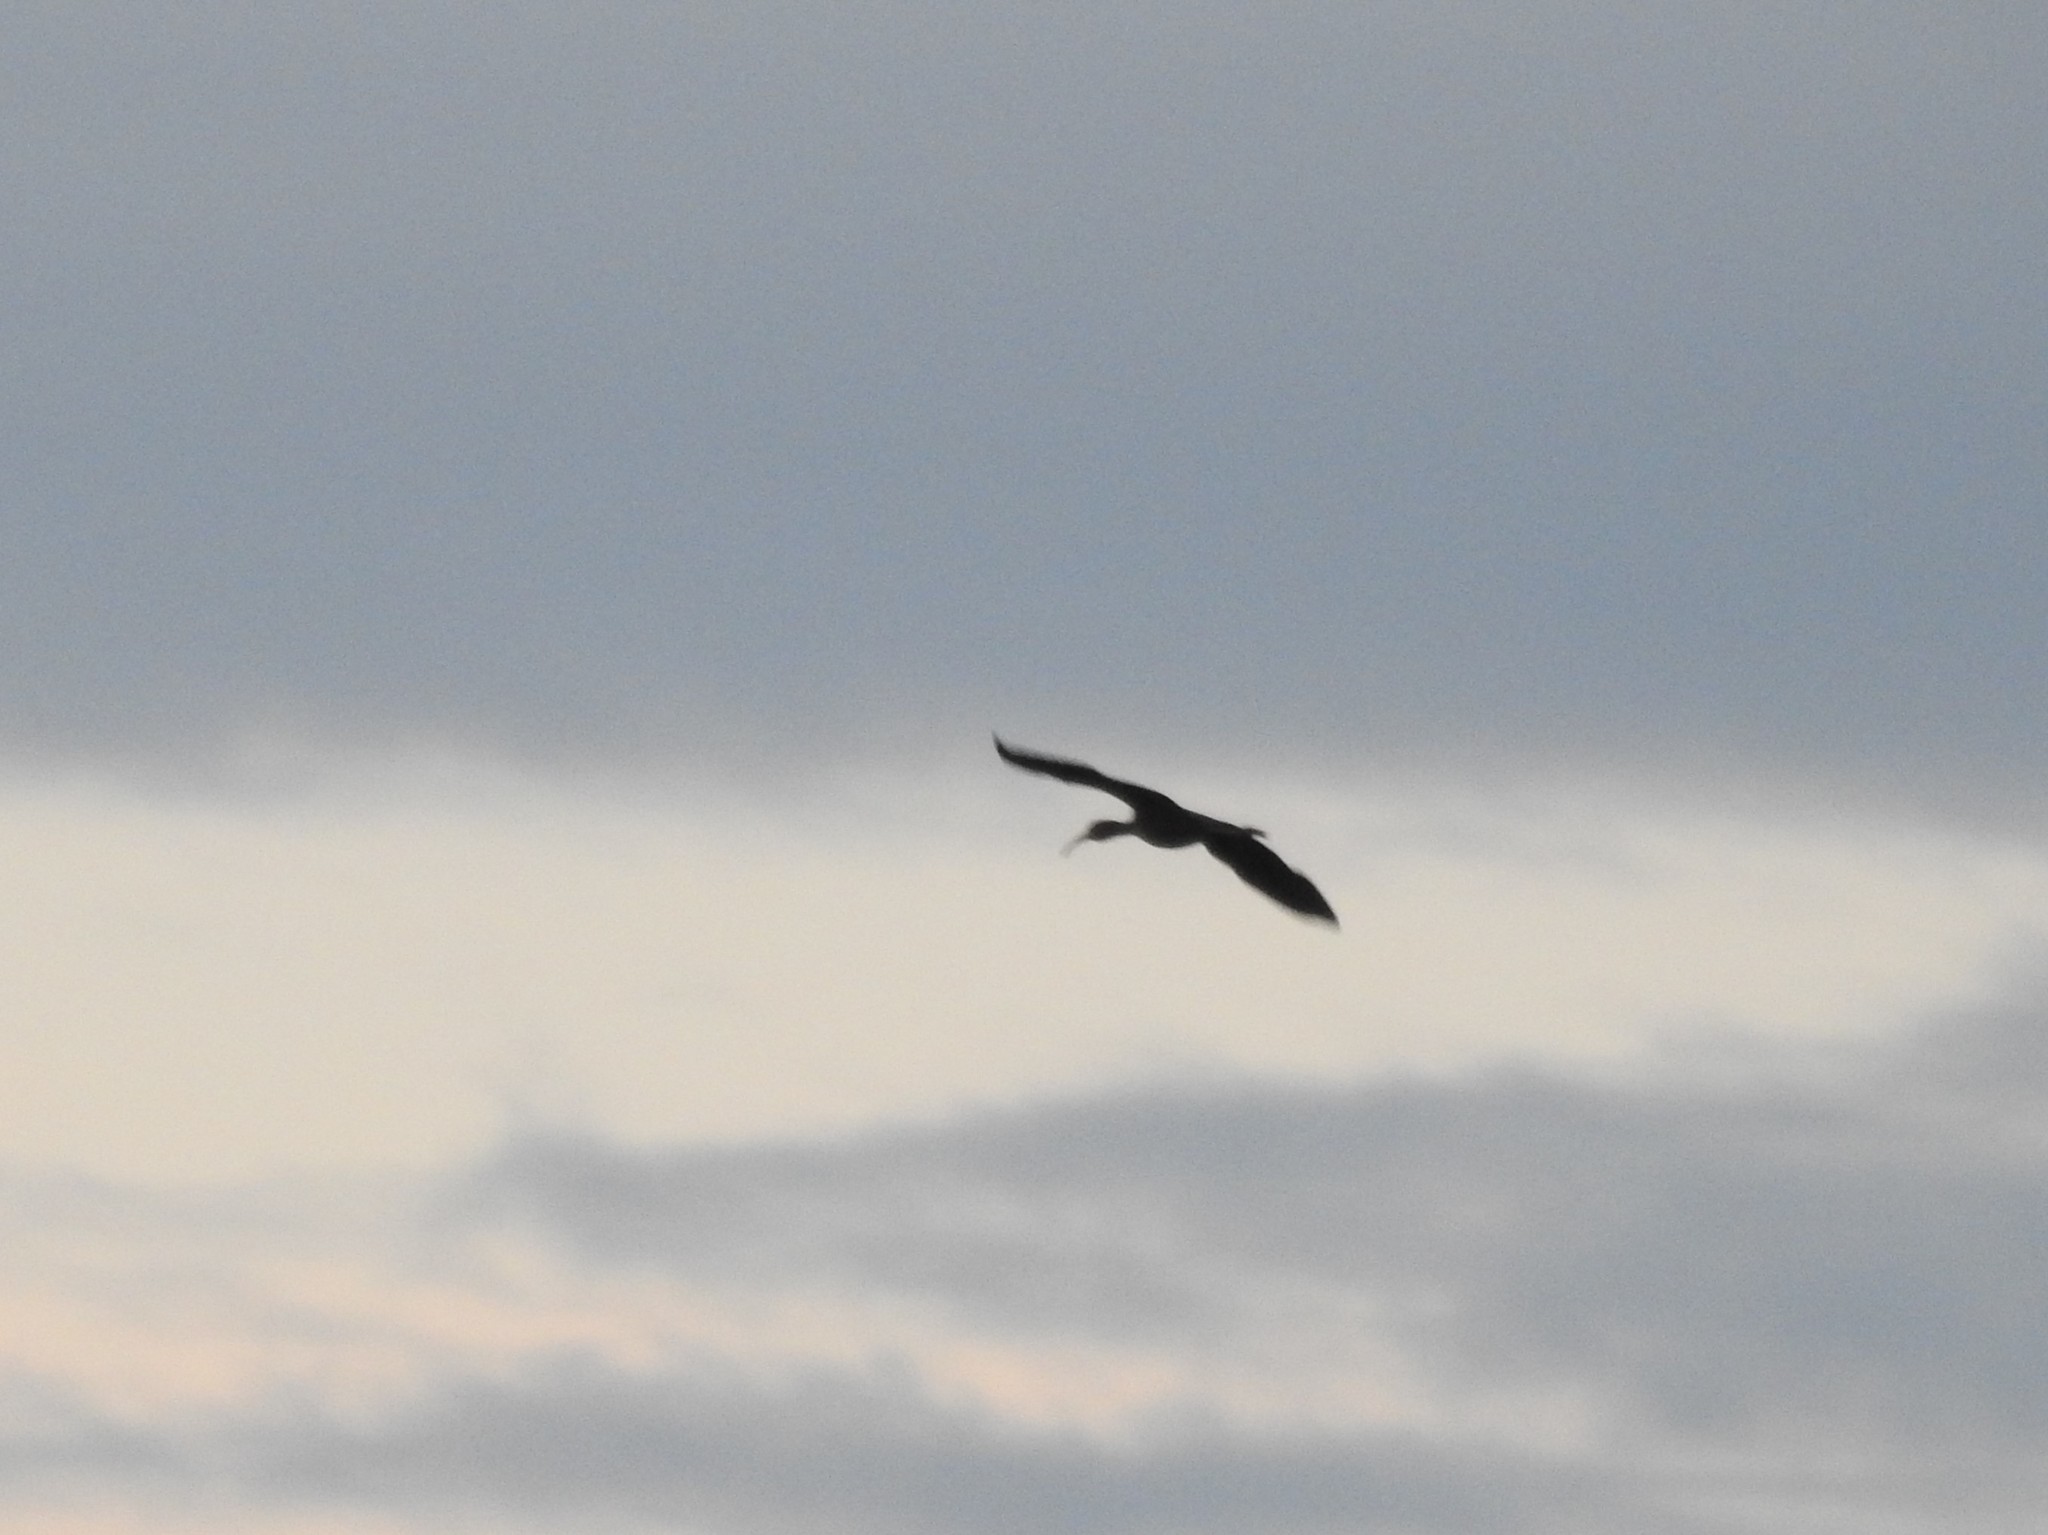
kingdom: Animalia
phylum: Chordata
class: Aves
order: Pelecaniformes
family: Threskiornithidae
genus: Plegadis
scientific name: Plegadis falcinellus
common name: Glossy ibis
